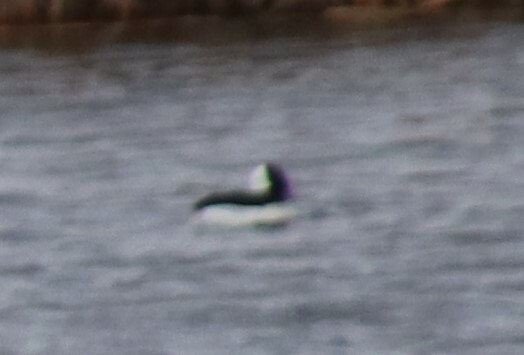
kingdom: Animalia
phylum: Chordata
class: Aves
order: Anseriformes
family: Anatidae
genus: Bucephala
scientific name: Bucephala albeola
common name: Bufflehead
